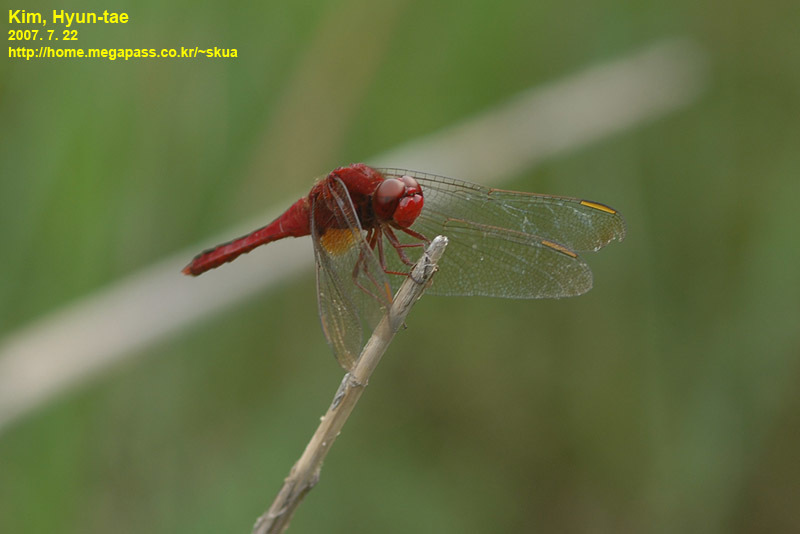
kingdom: Animalia
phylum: Arthropoda
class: Insecta
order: Odonata
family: Libellulidae
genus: Crocothemis
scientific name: Crocothemis servilia
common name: Scarlet skimmer
